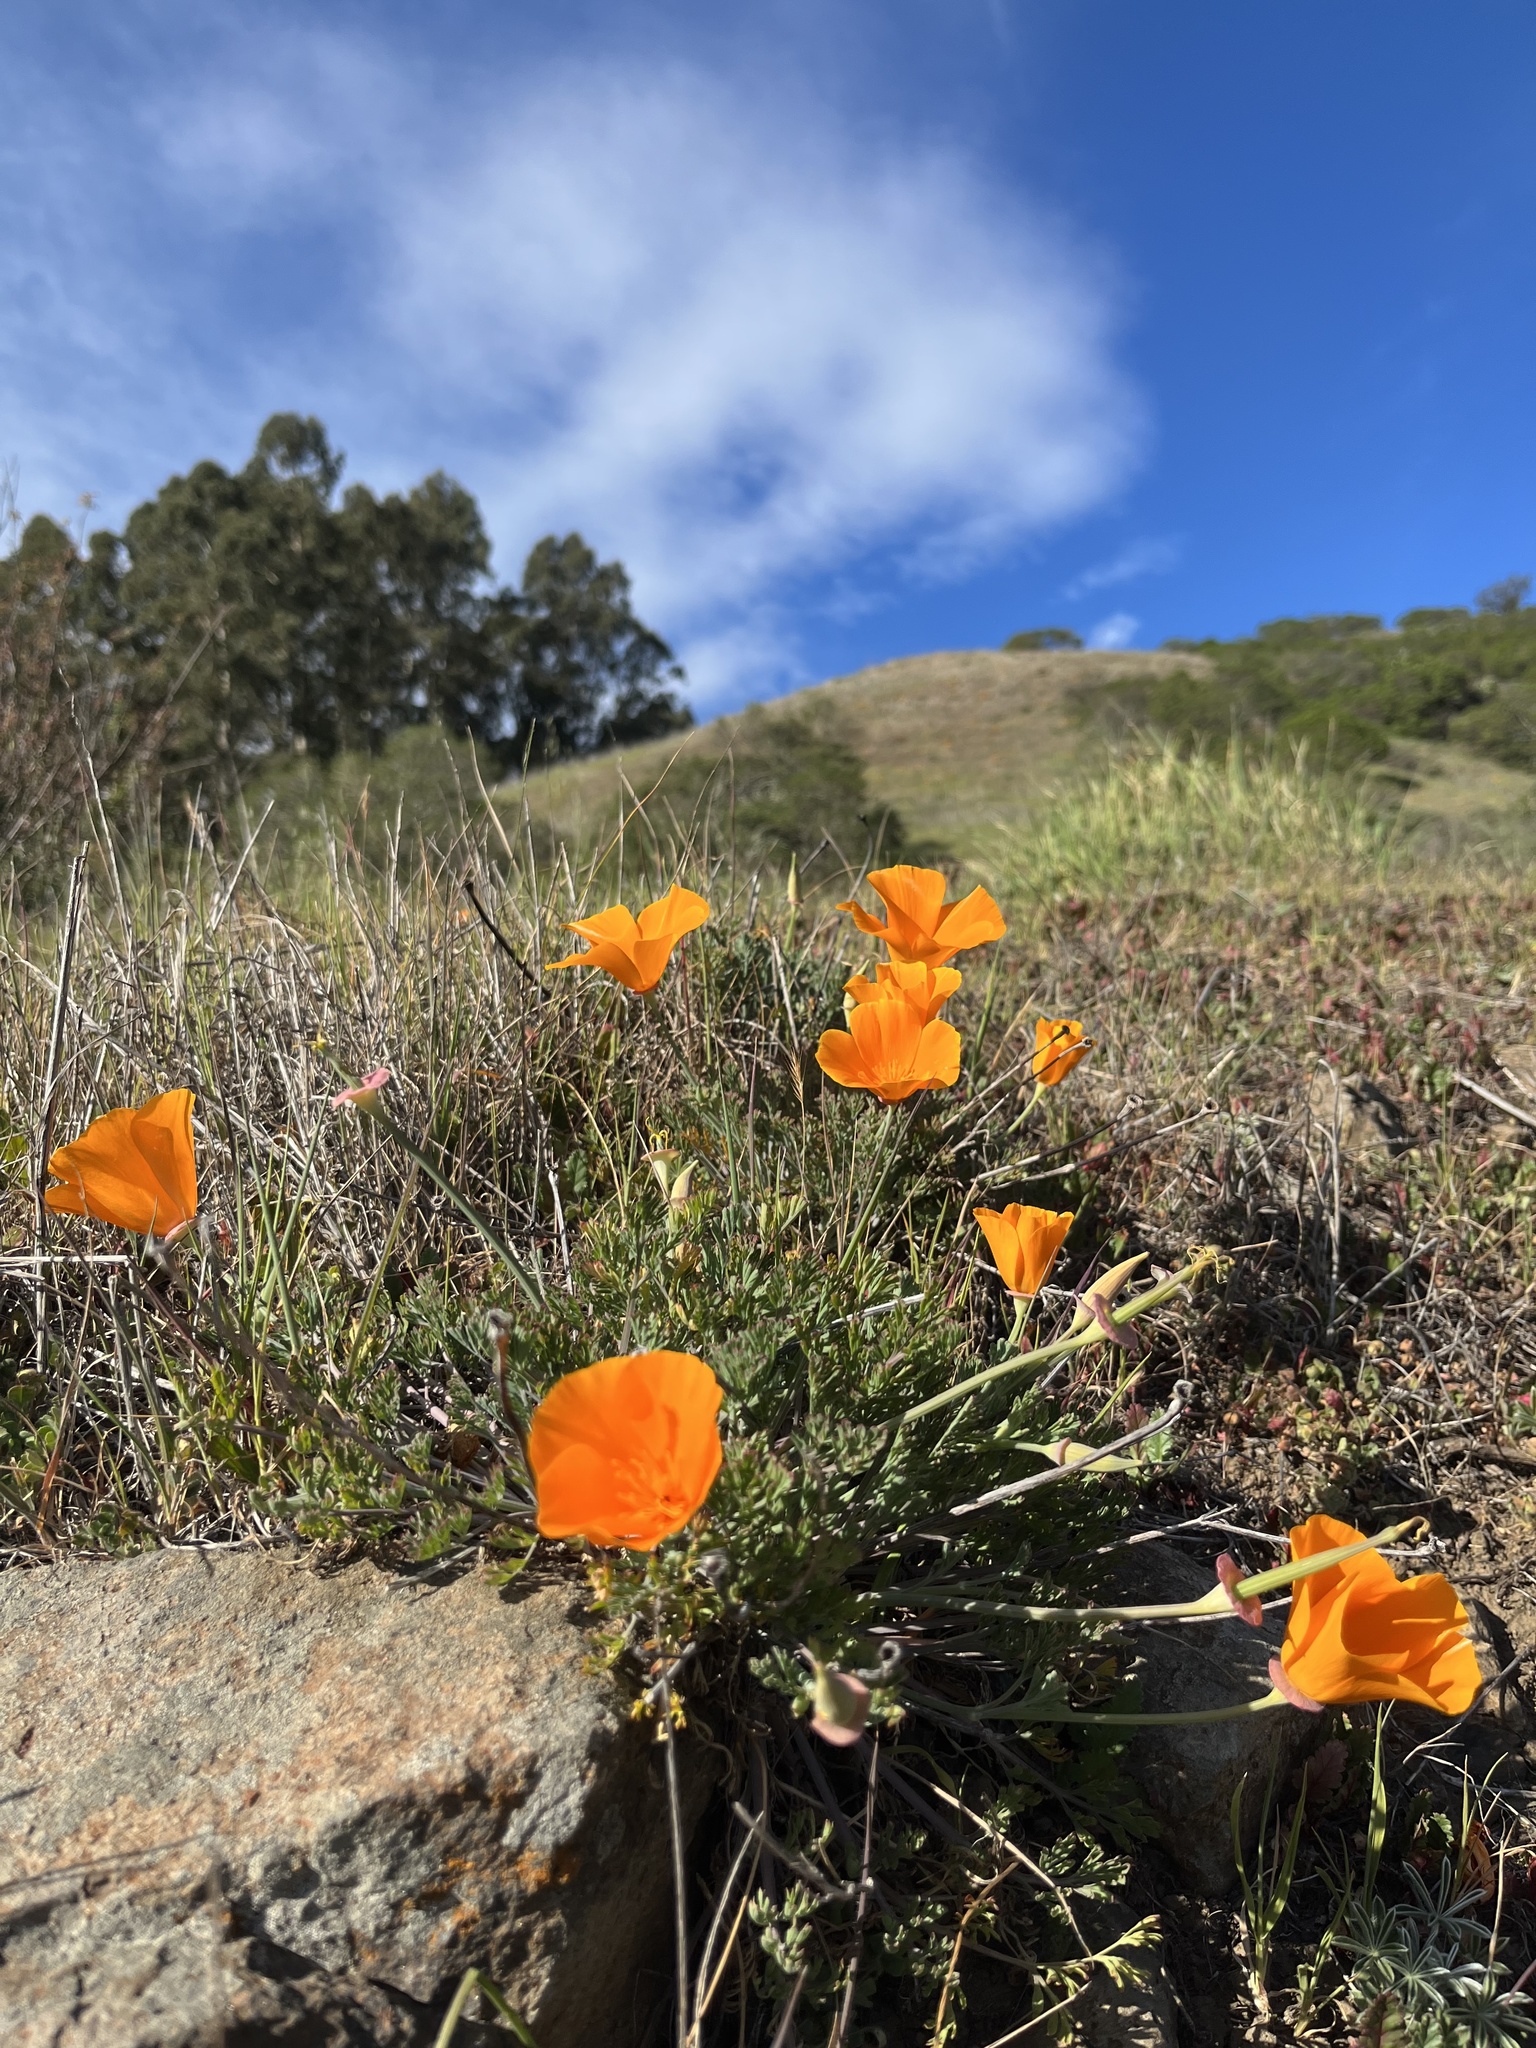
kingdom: Plantae
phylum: Tracheophyta
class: Magnoliopsida
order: Ranunculales
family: Papaveraceae
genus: Eschscholzia
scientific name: Eschscholzia californica
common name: California poppy
